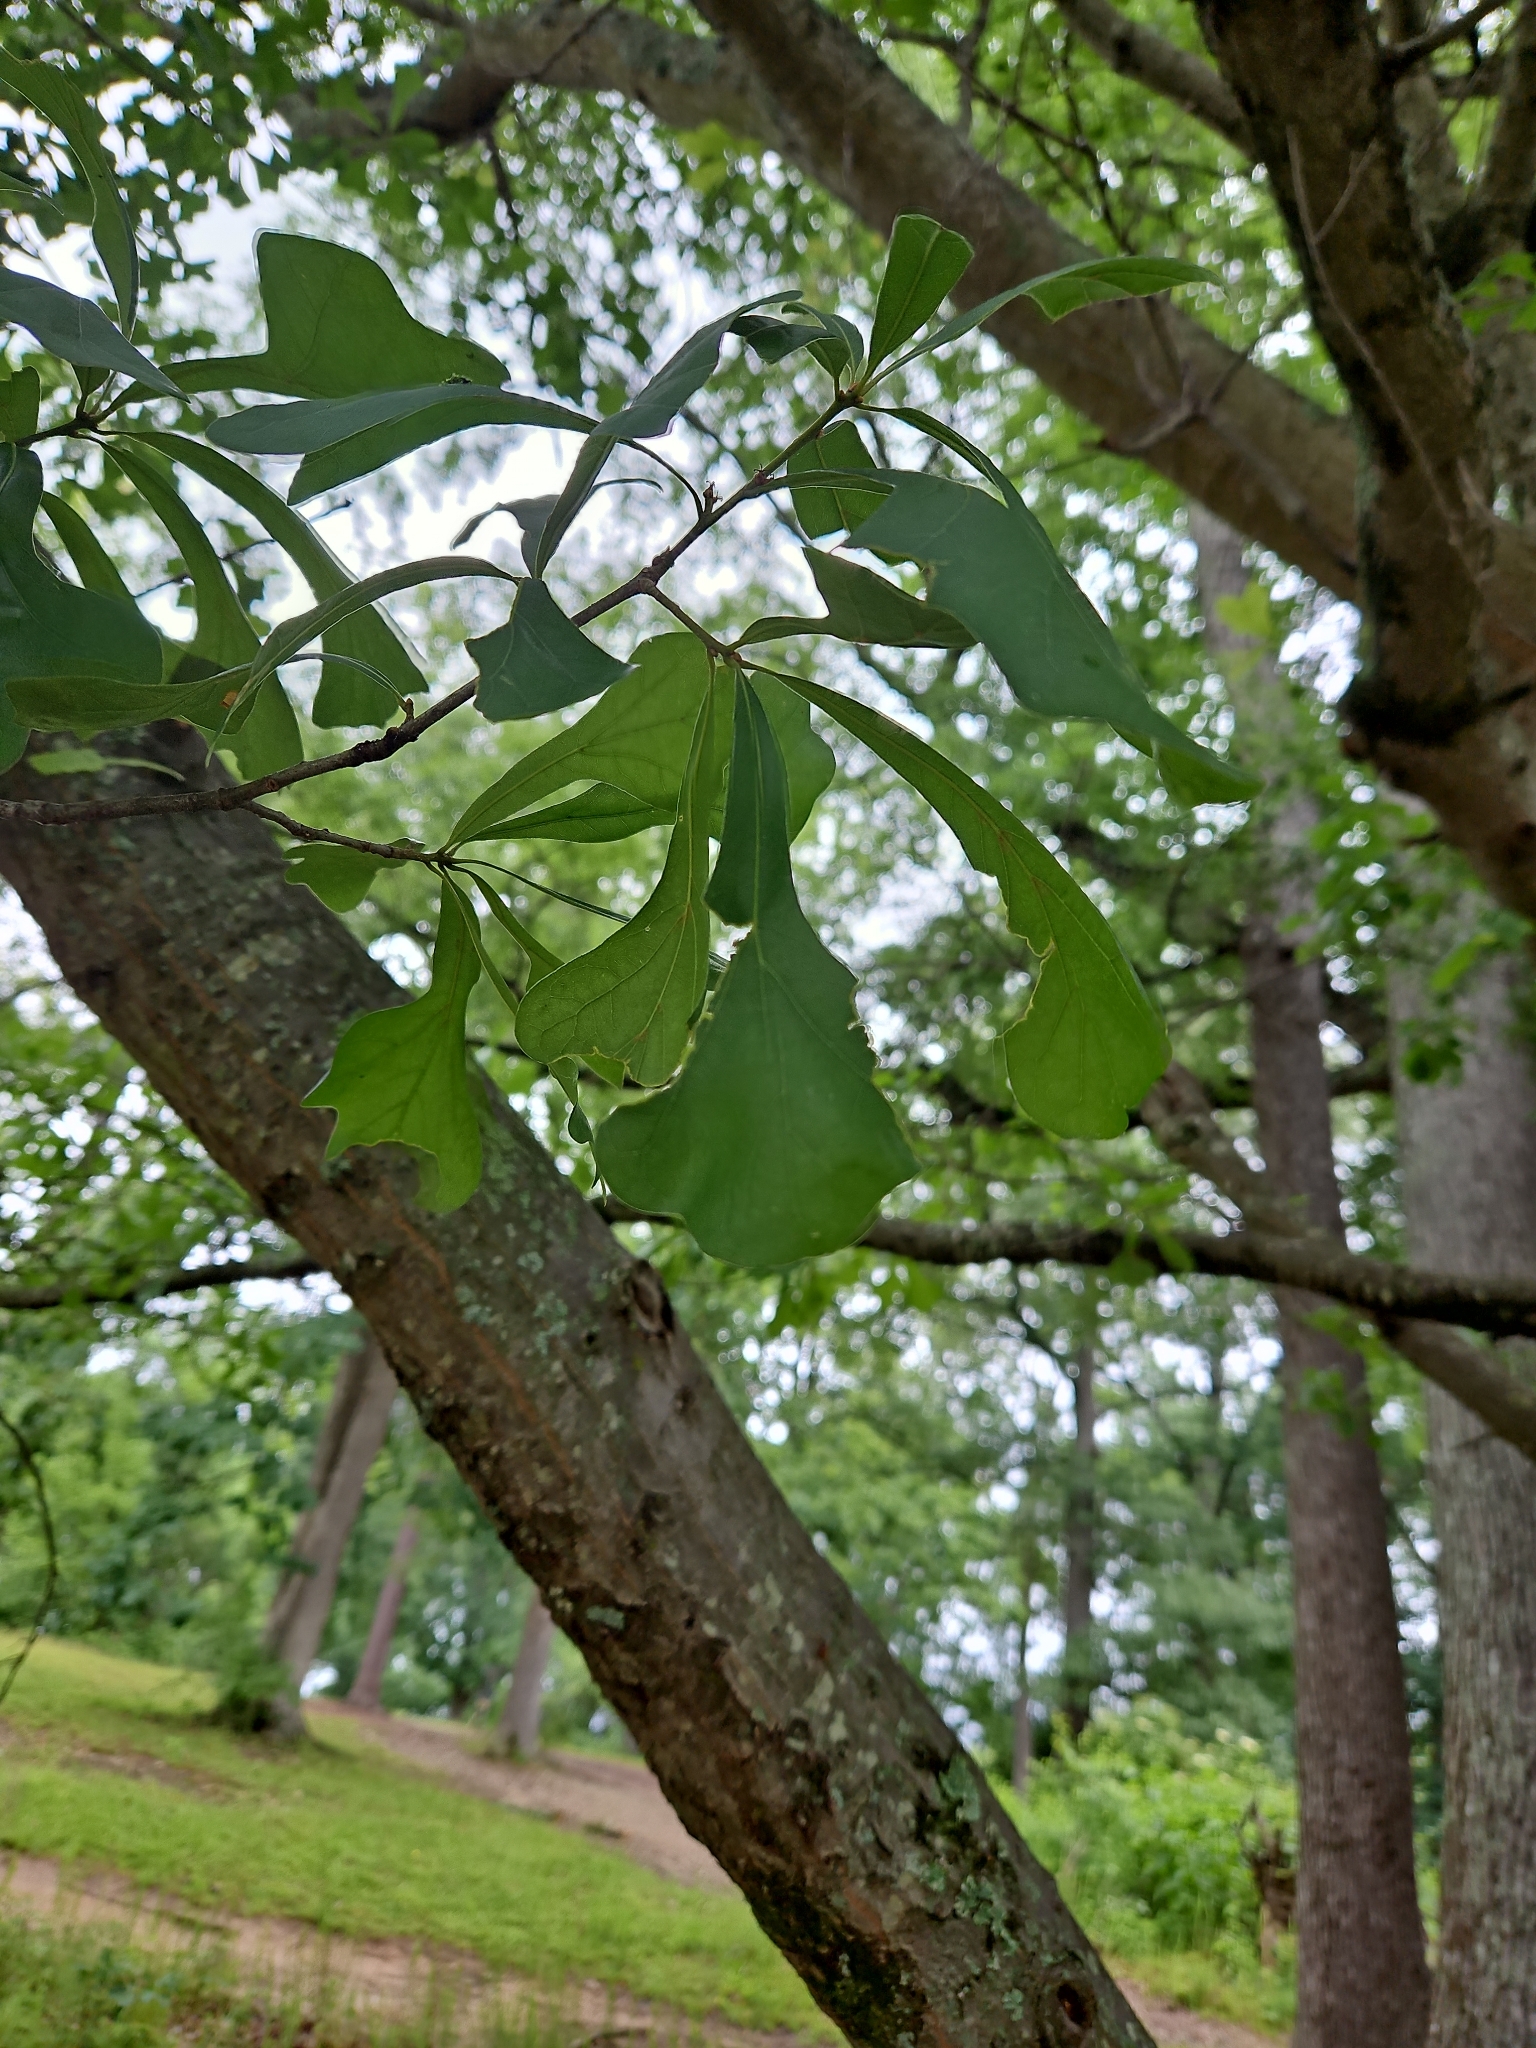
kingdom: Plantae
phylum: Tracheophyta
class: Magnoliopsida
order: Fagales
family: Fagaceae
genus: Quercus
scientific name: Quercus nigra
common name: Water oak
